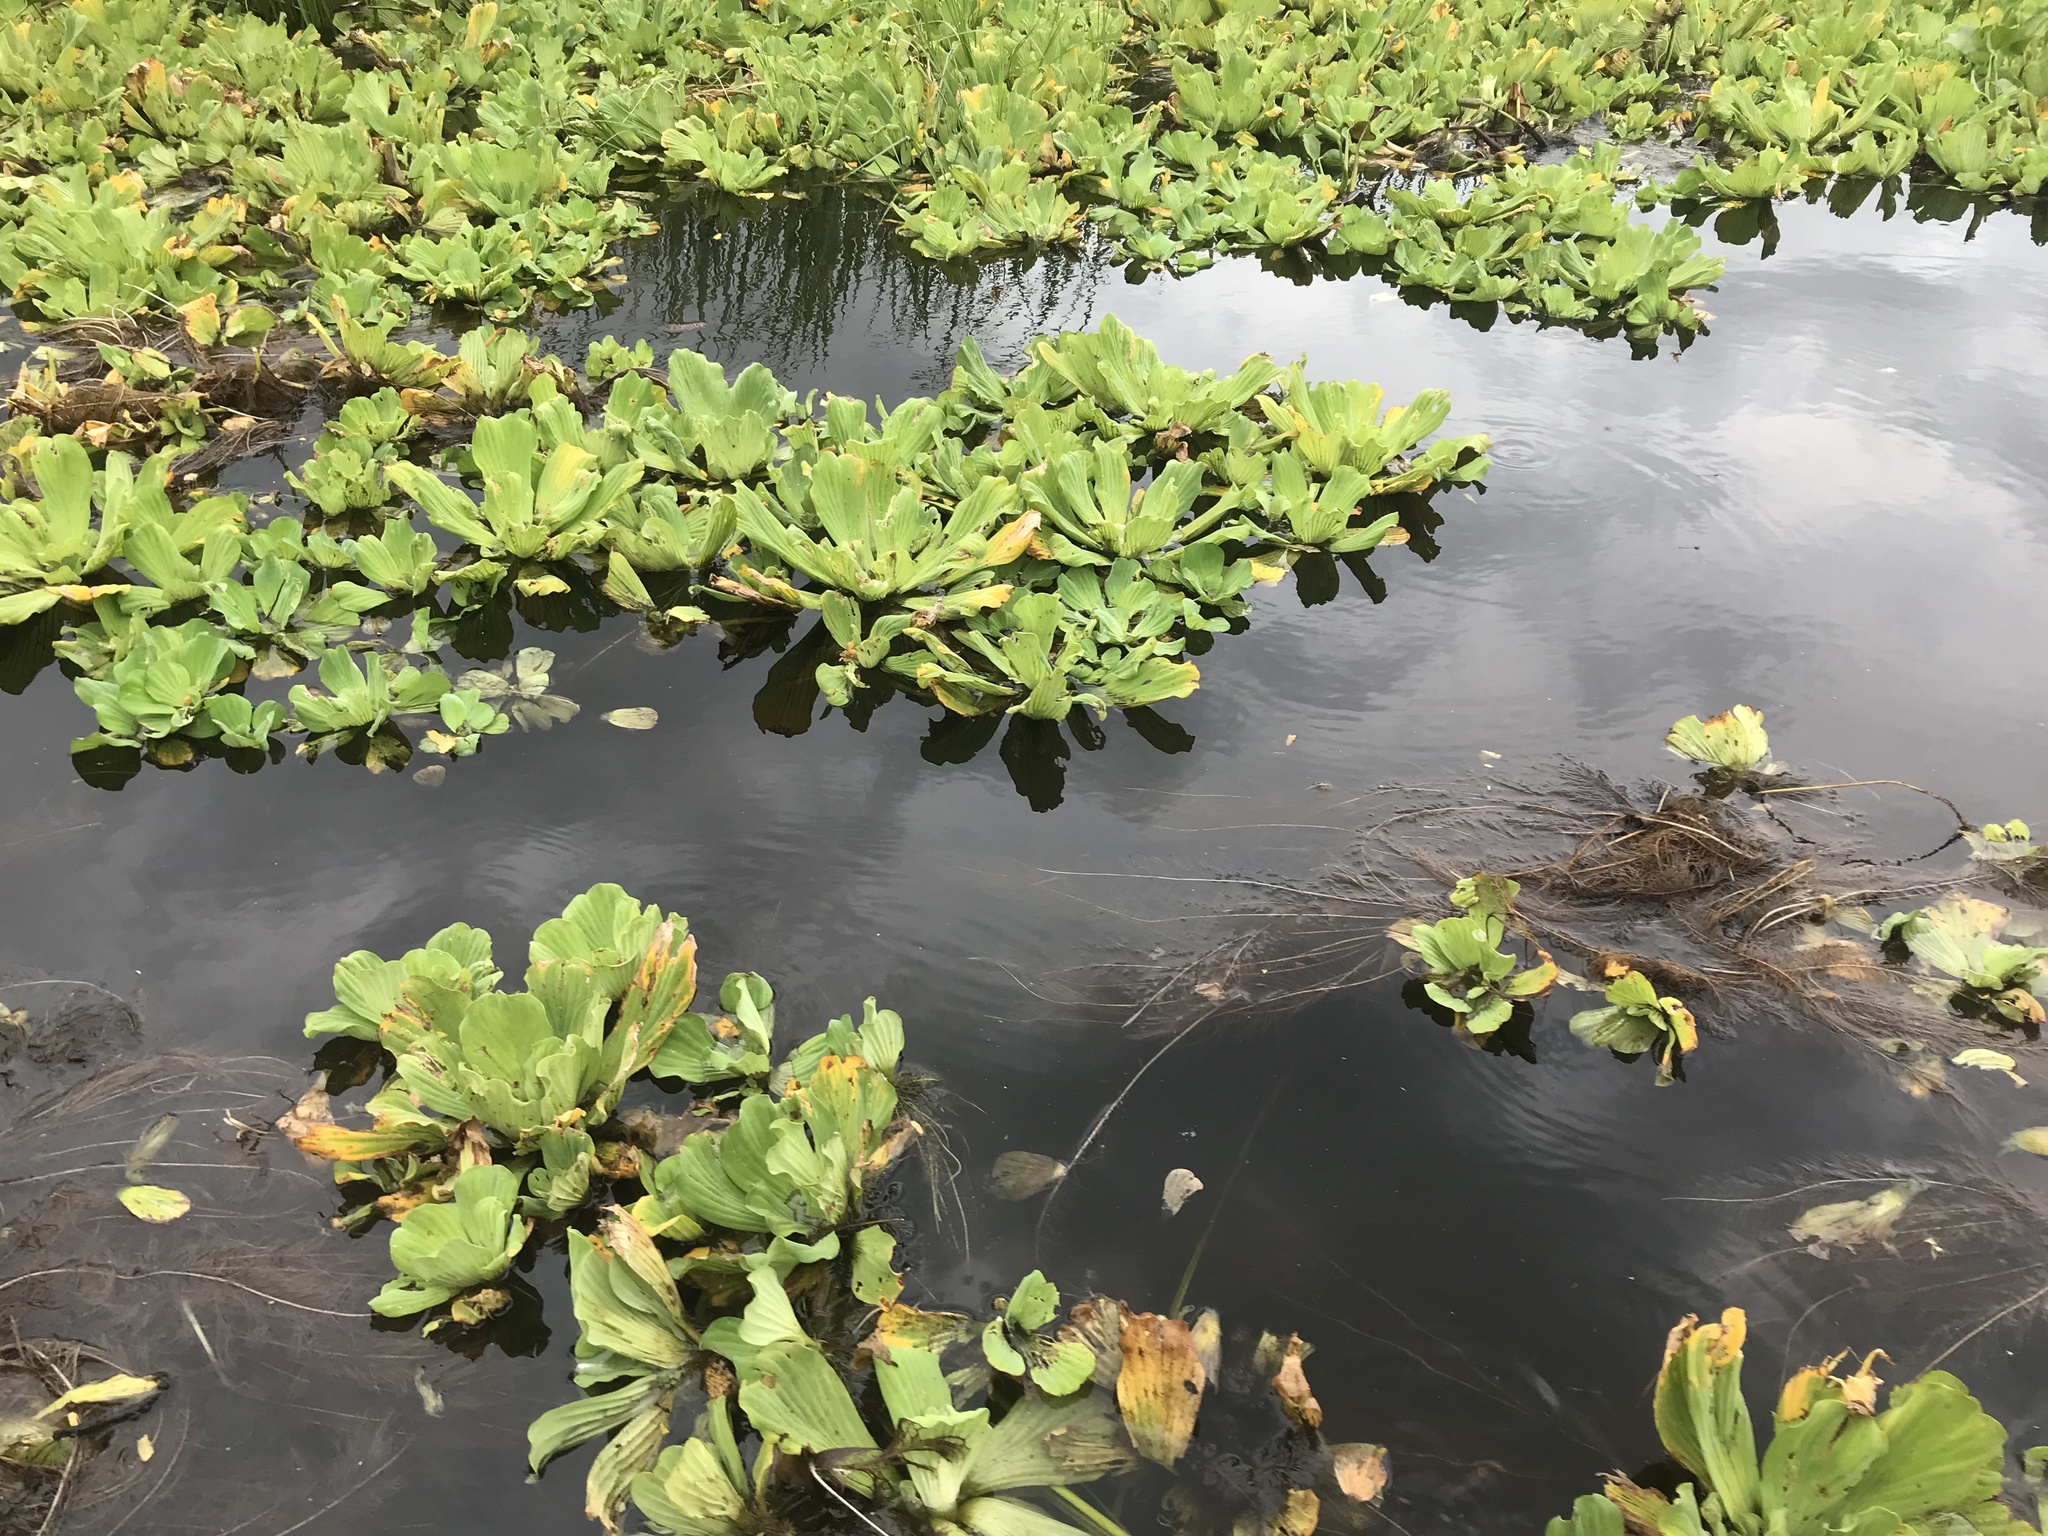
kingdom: Plantae
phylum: Tracheophyta
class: Liliopsida
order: Alismatales
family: Araceae
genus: Pistia
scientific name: Pistia stratiotes
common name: Water lettuce
